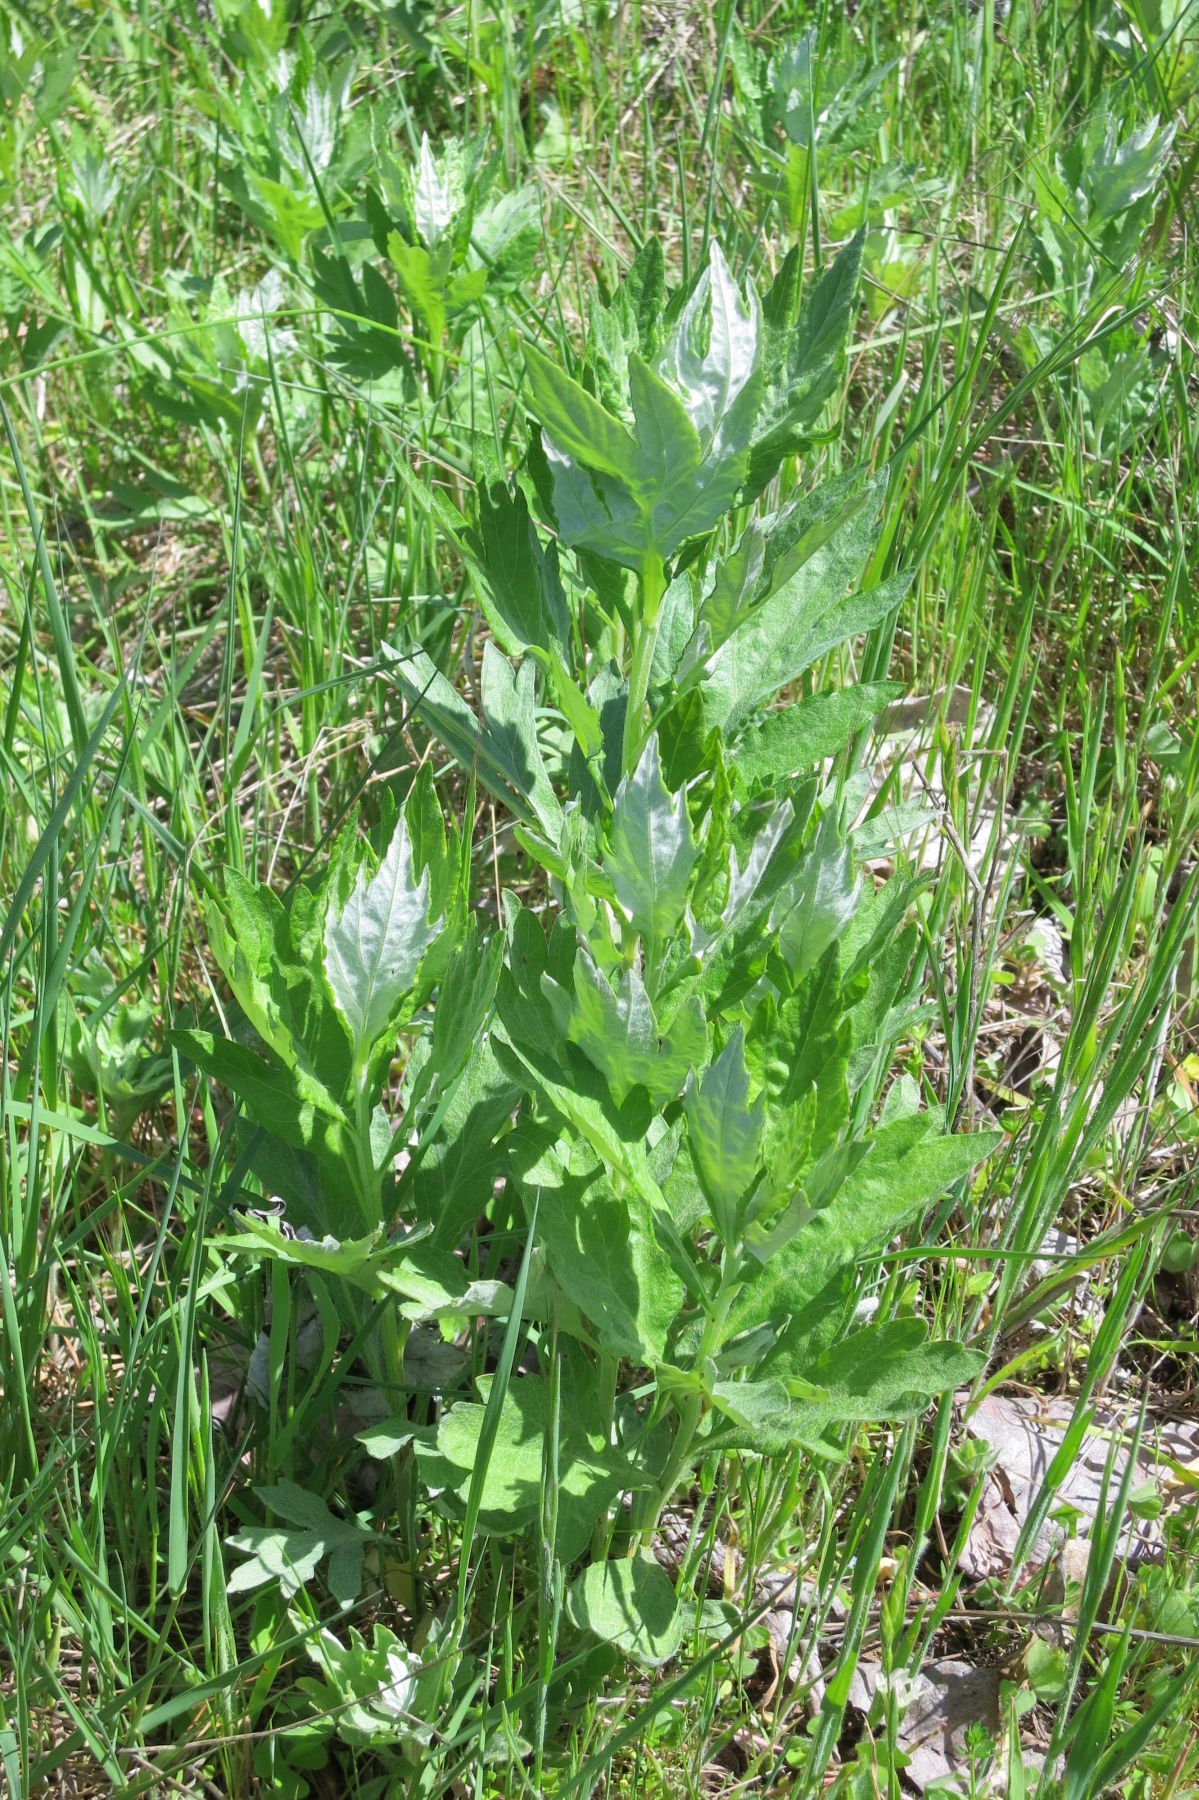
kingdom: Plantae
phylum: Tracheophyta
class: Magnoliopsida
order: Asterales
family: Asteraceae
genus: Artemisia
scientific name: Artemisia douglasiana
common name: Northwest mugwort
